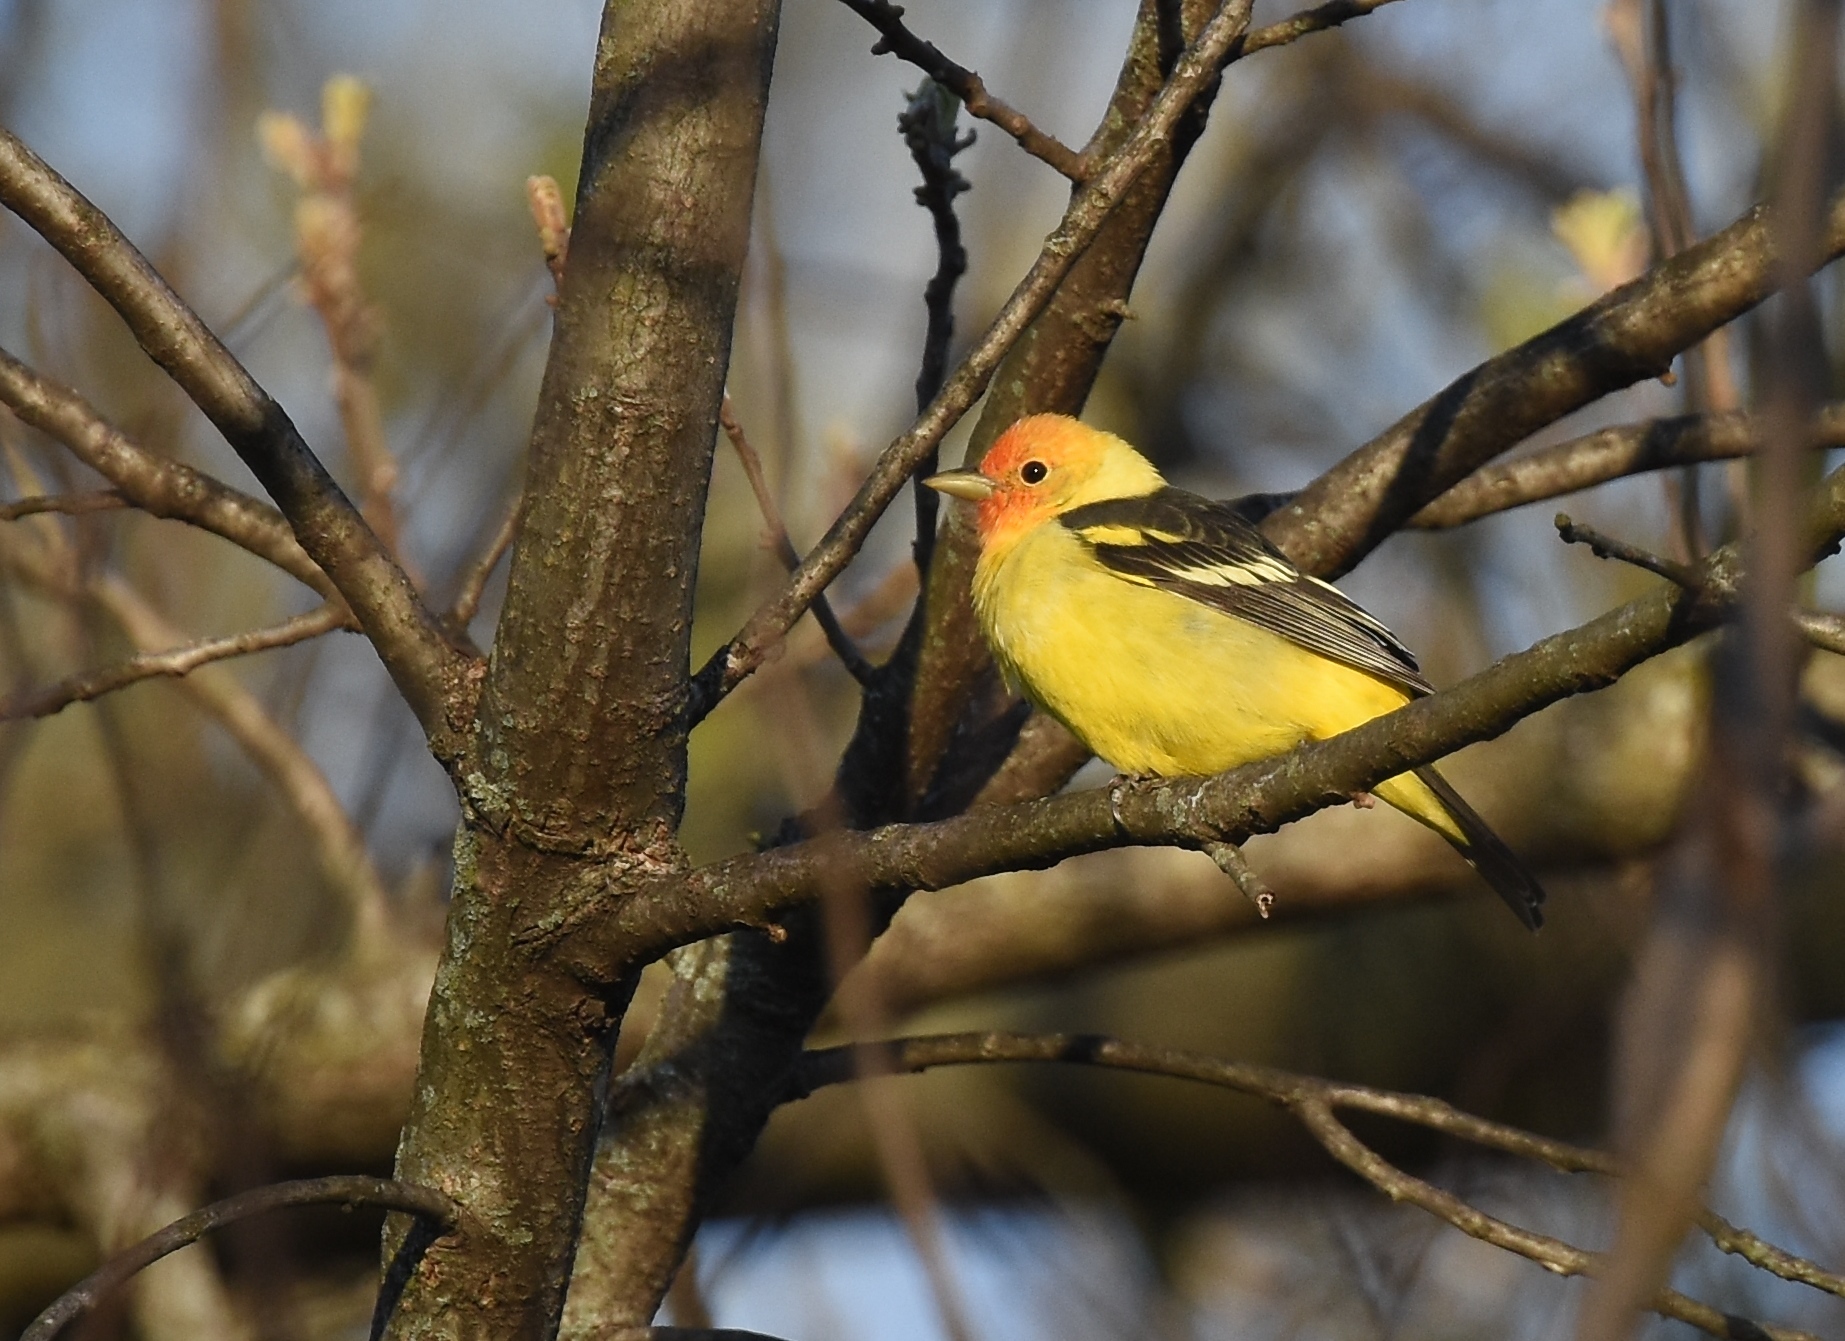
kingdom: Animalia
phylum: Chordata
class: Aves
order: Passeriformes
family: Cardinalidae
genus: Piranga
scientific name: Piranga ludoviciana
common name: Western tanager
